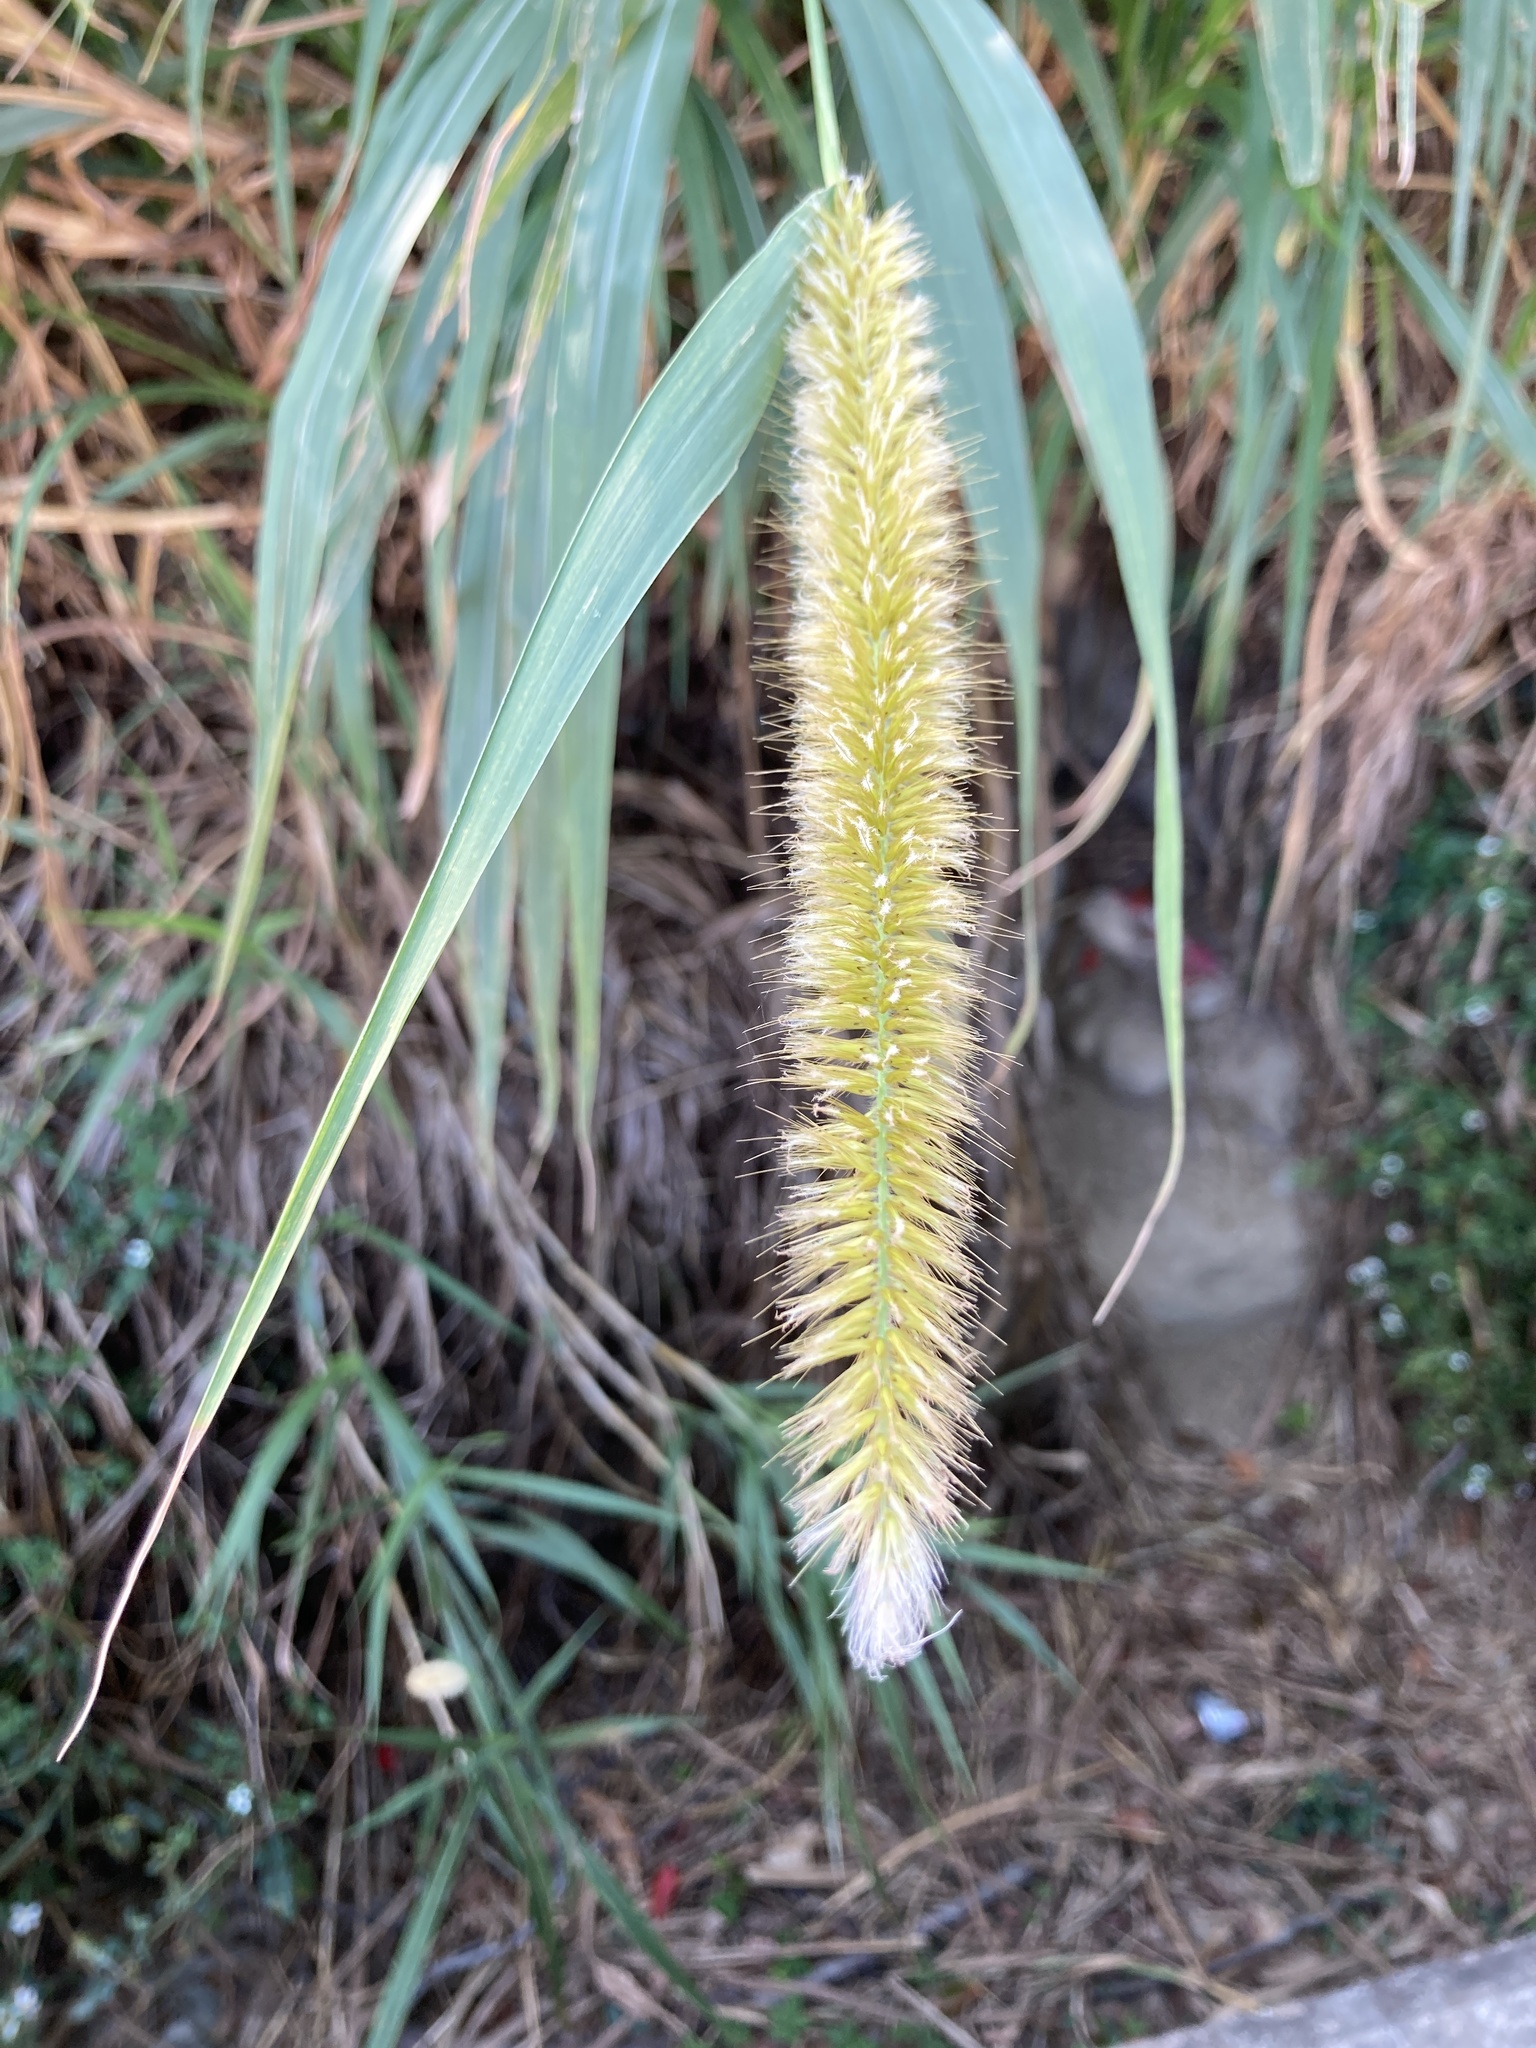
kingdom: Plantae
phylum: Tracheophyta
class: Liliopsida
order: Poales
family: Poaceae
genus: Cenchrus
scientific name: Cenchrus purpureus
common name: Elephant grass
